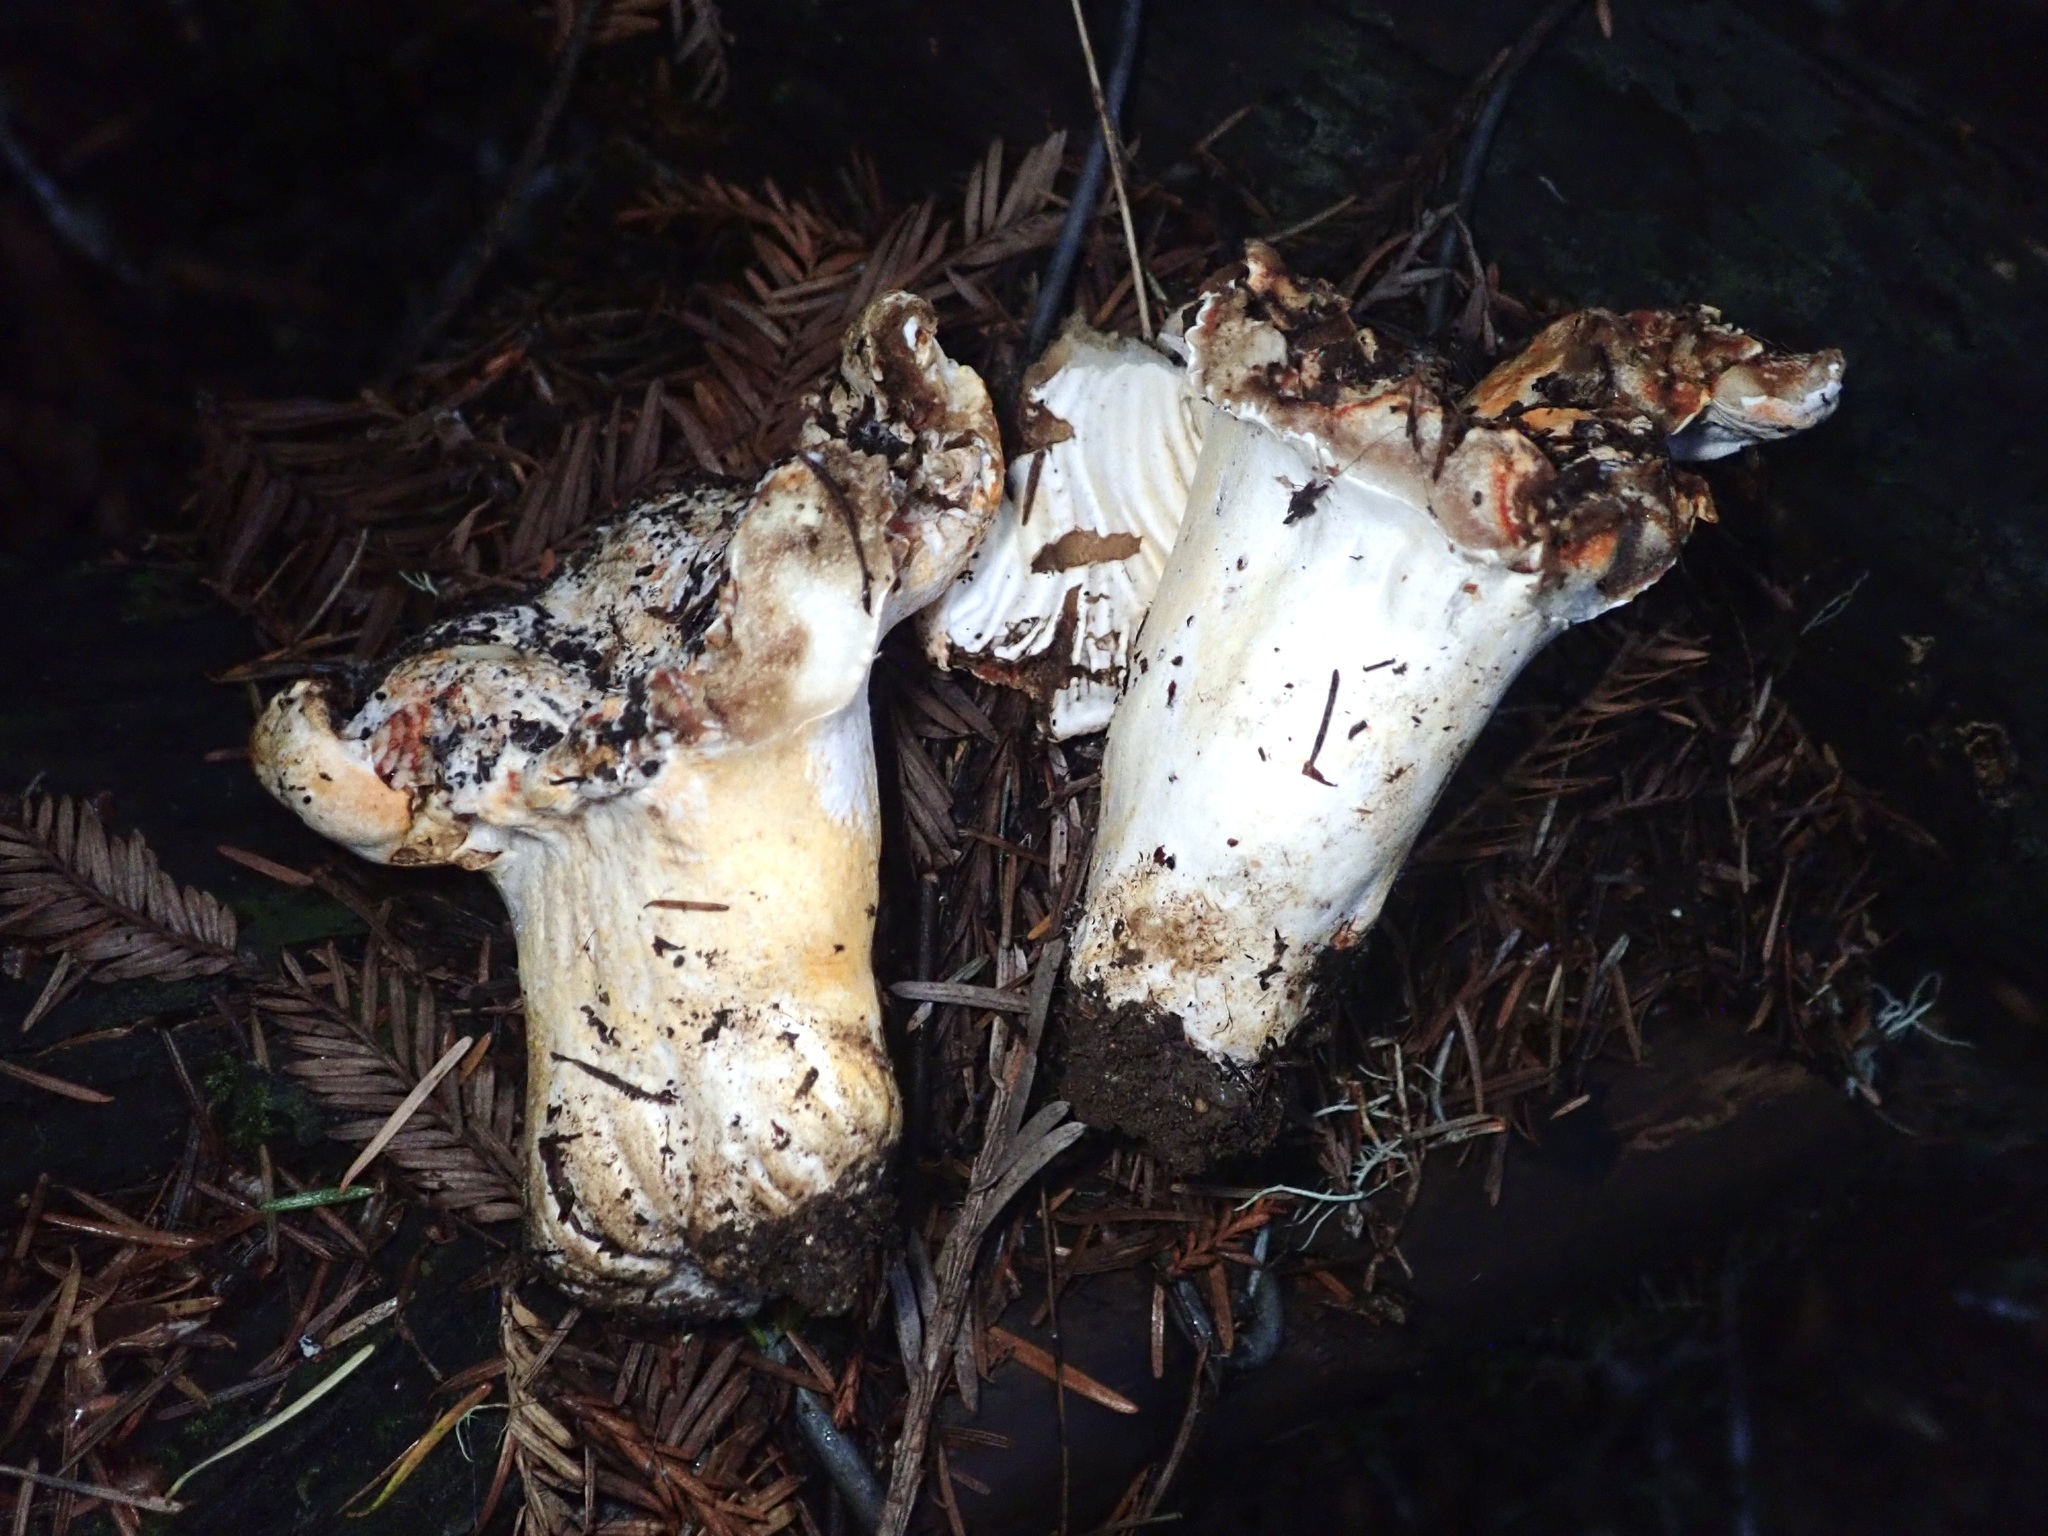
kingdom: Fungi
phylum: Ascomycota
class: Sordariomycetes
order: Hypocreales
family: Hypocreaceae
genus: Hypomyces
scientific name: Hypomyces lactifluorum
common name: Lobster mushroom
